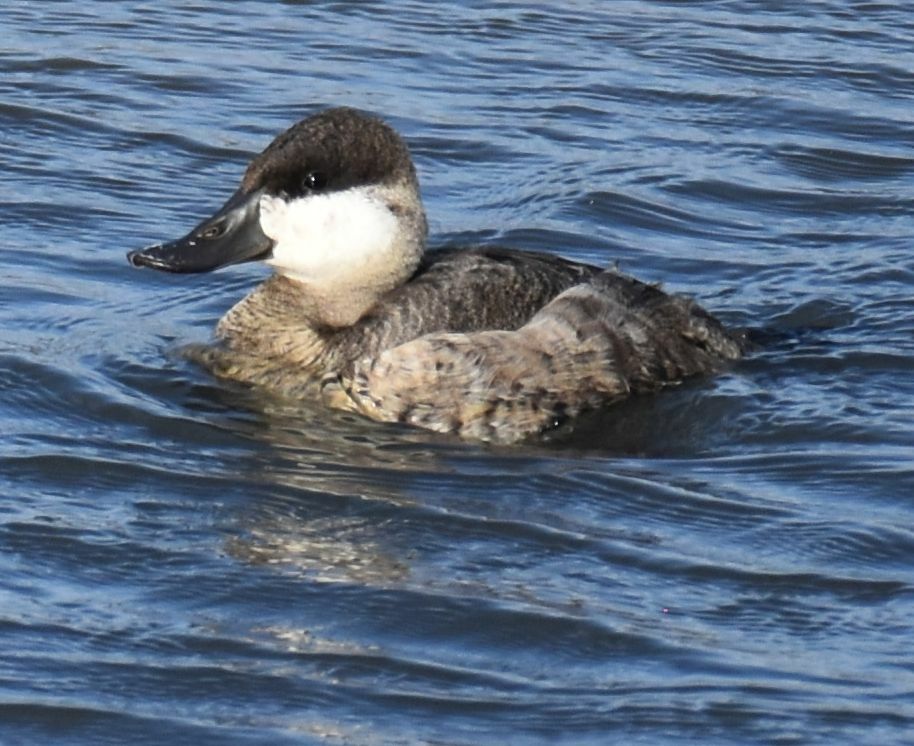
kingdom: Animalia
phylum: Chordata
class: Aves
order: Anseriformes
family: Anatidae
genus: Oxyura
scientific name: Oxyura jamaicensis
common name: Ruddy duck
